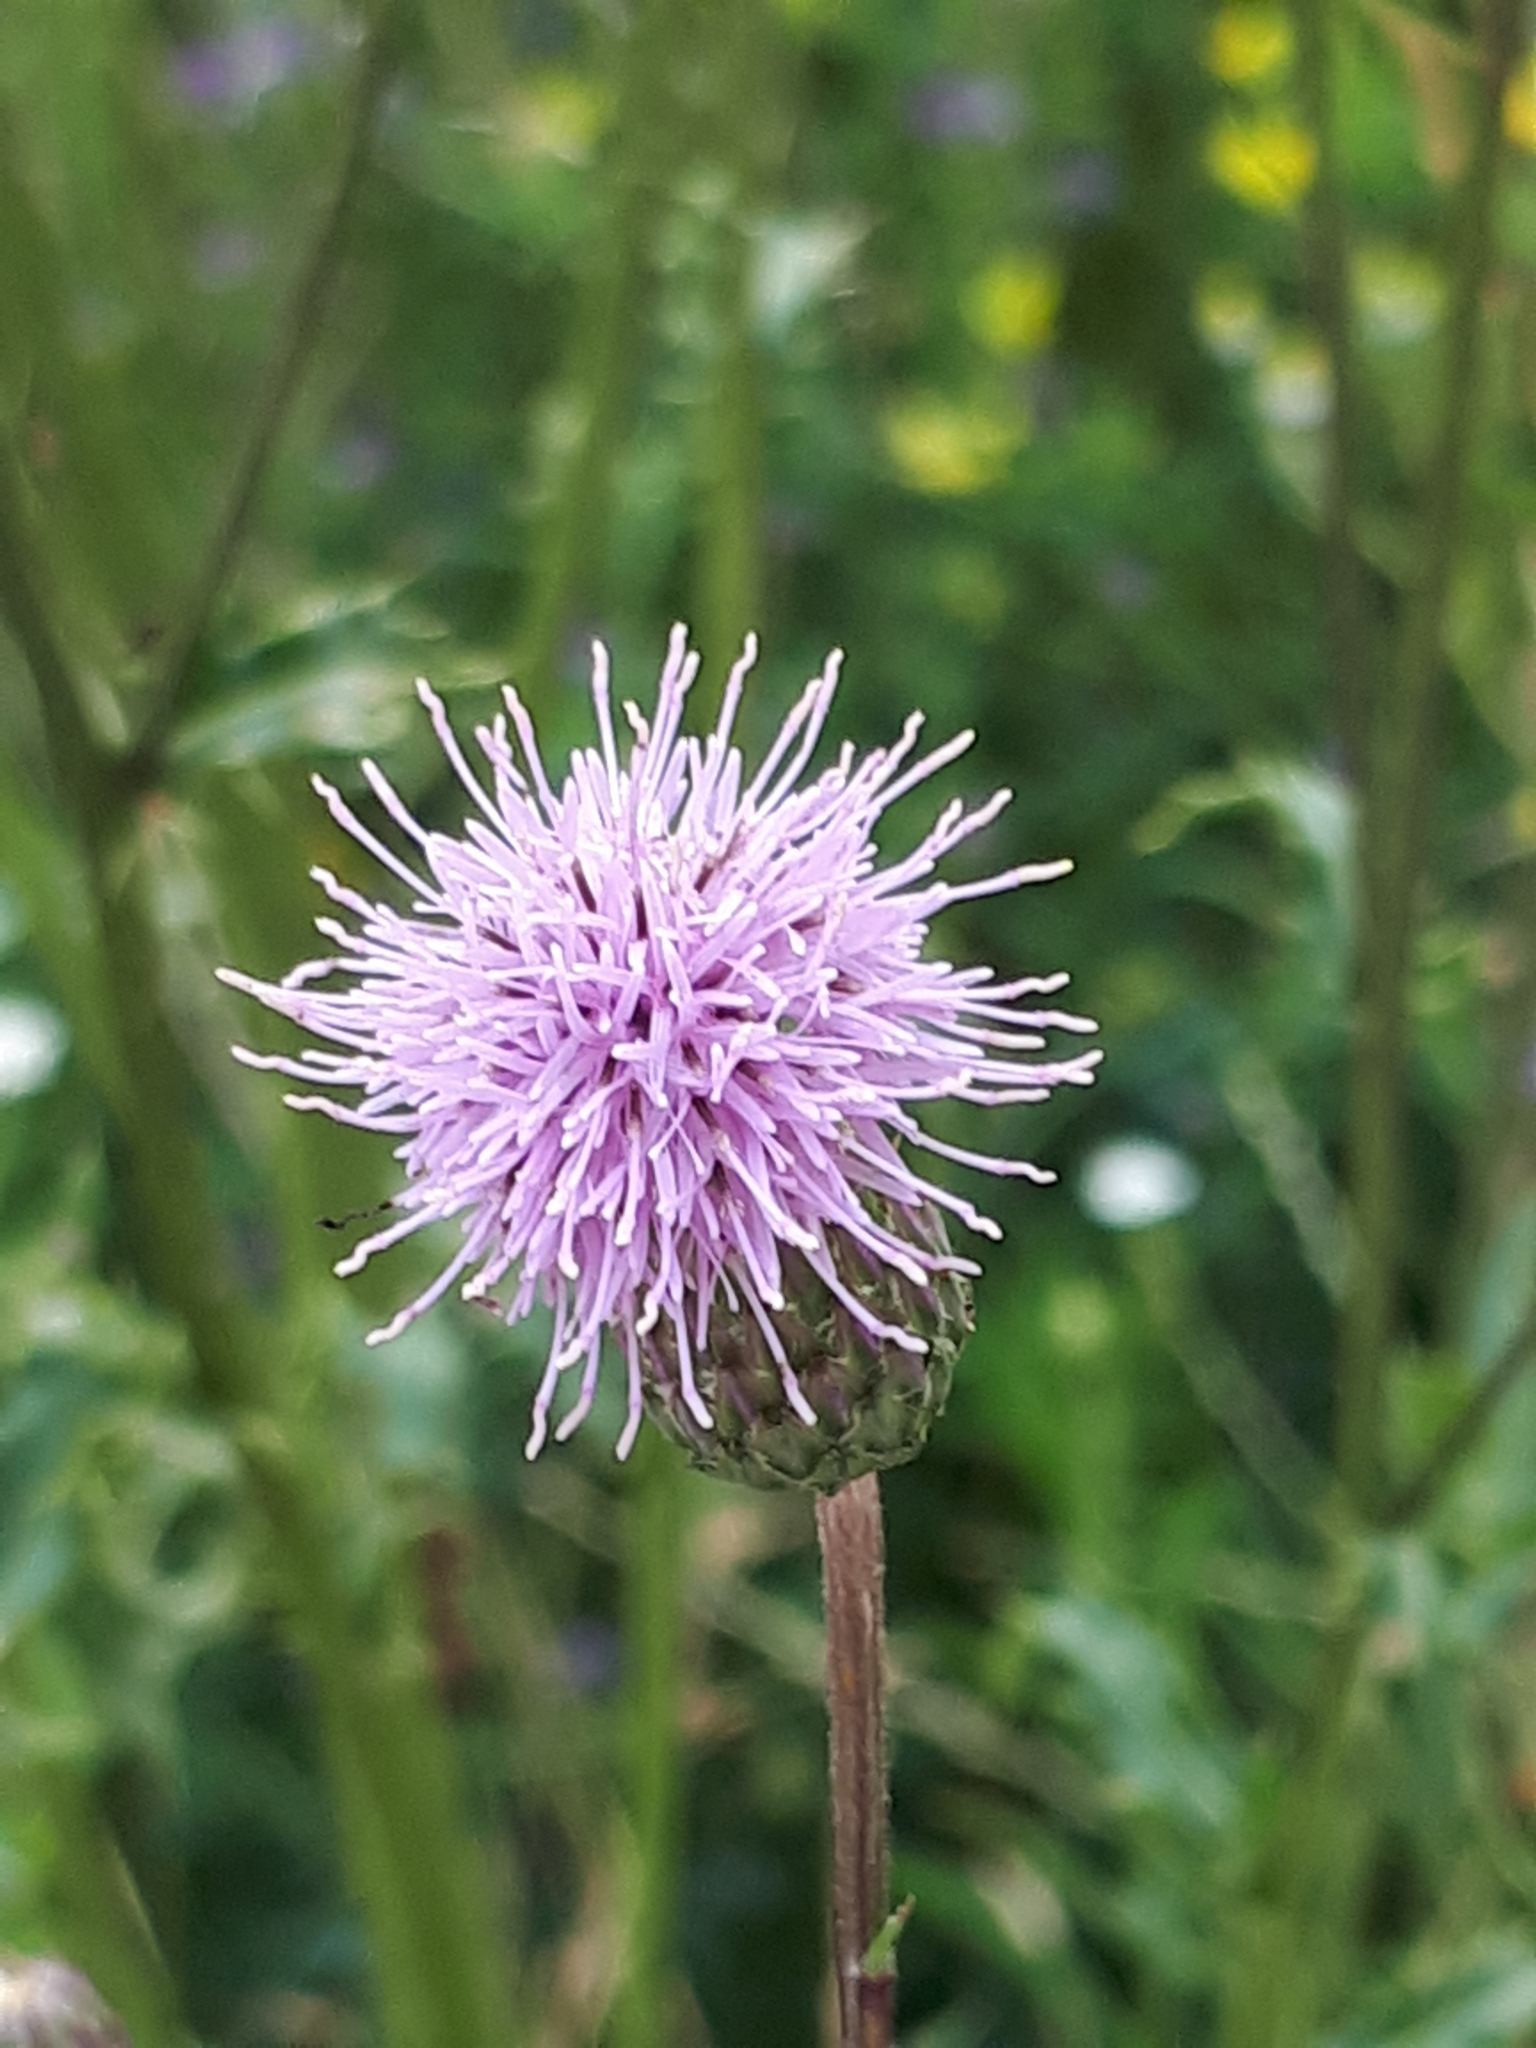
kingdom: Plantae
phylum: Tracheophyta
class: Magnoliopsida
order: Asterales
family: Asteraceae
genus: Cirsium
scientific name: Cirsium arvense
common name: Creeping thistle
